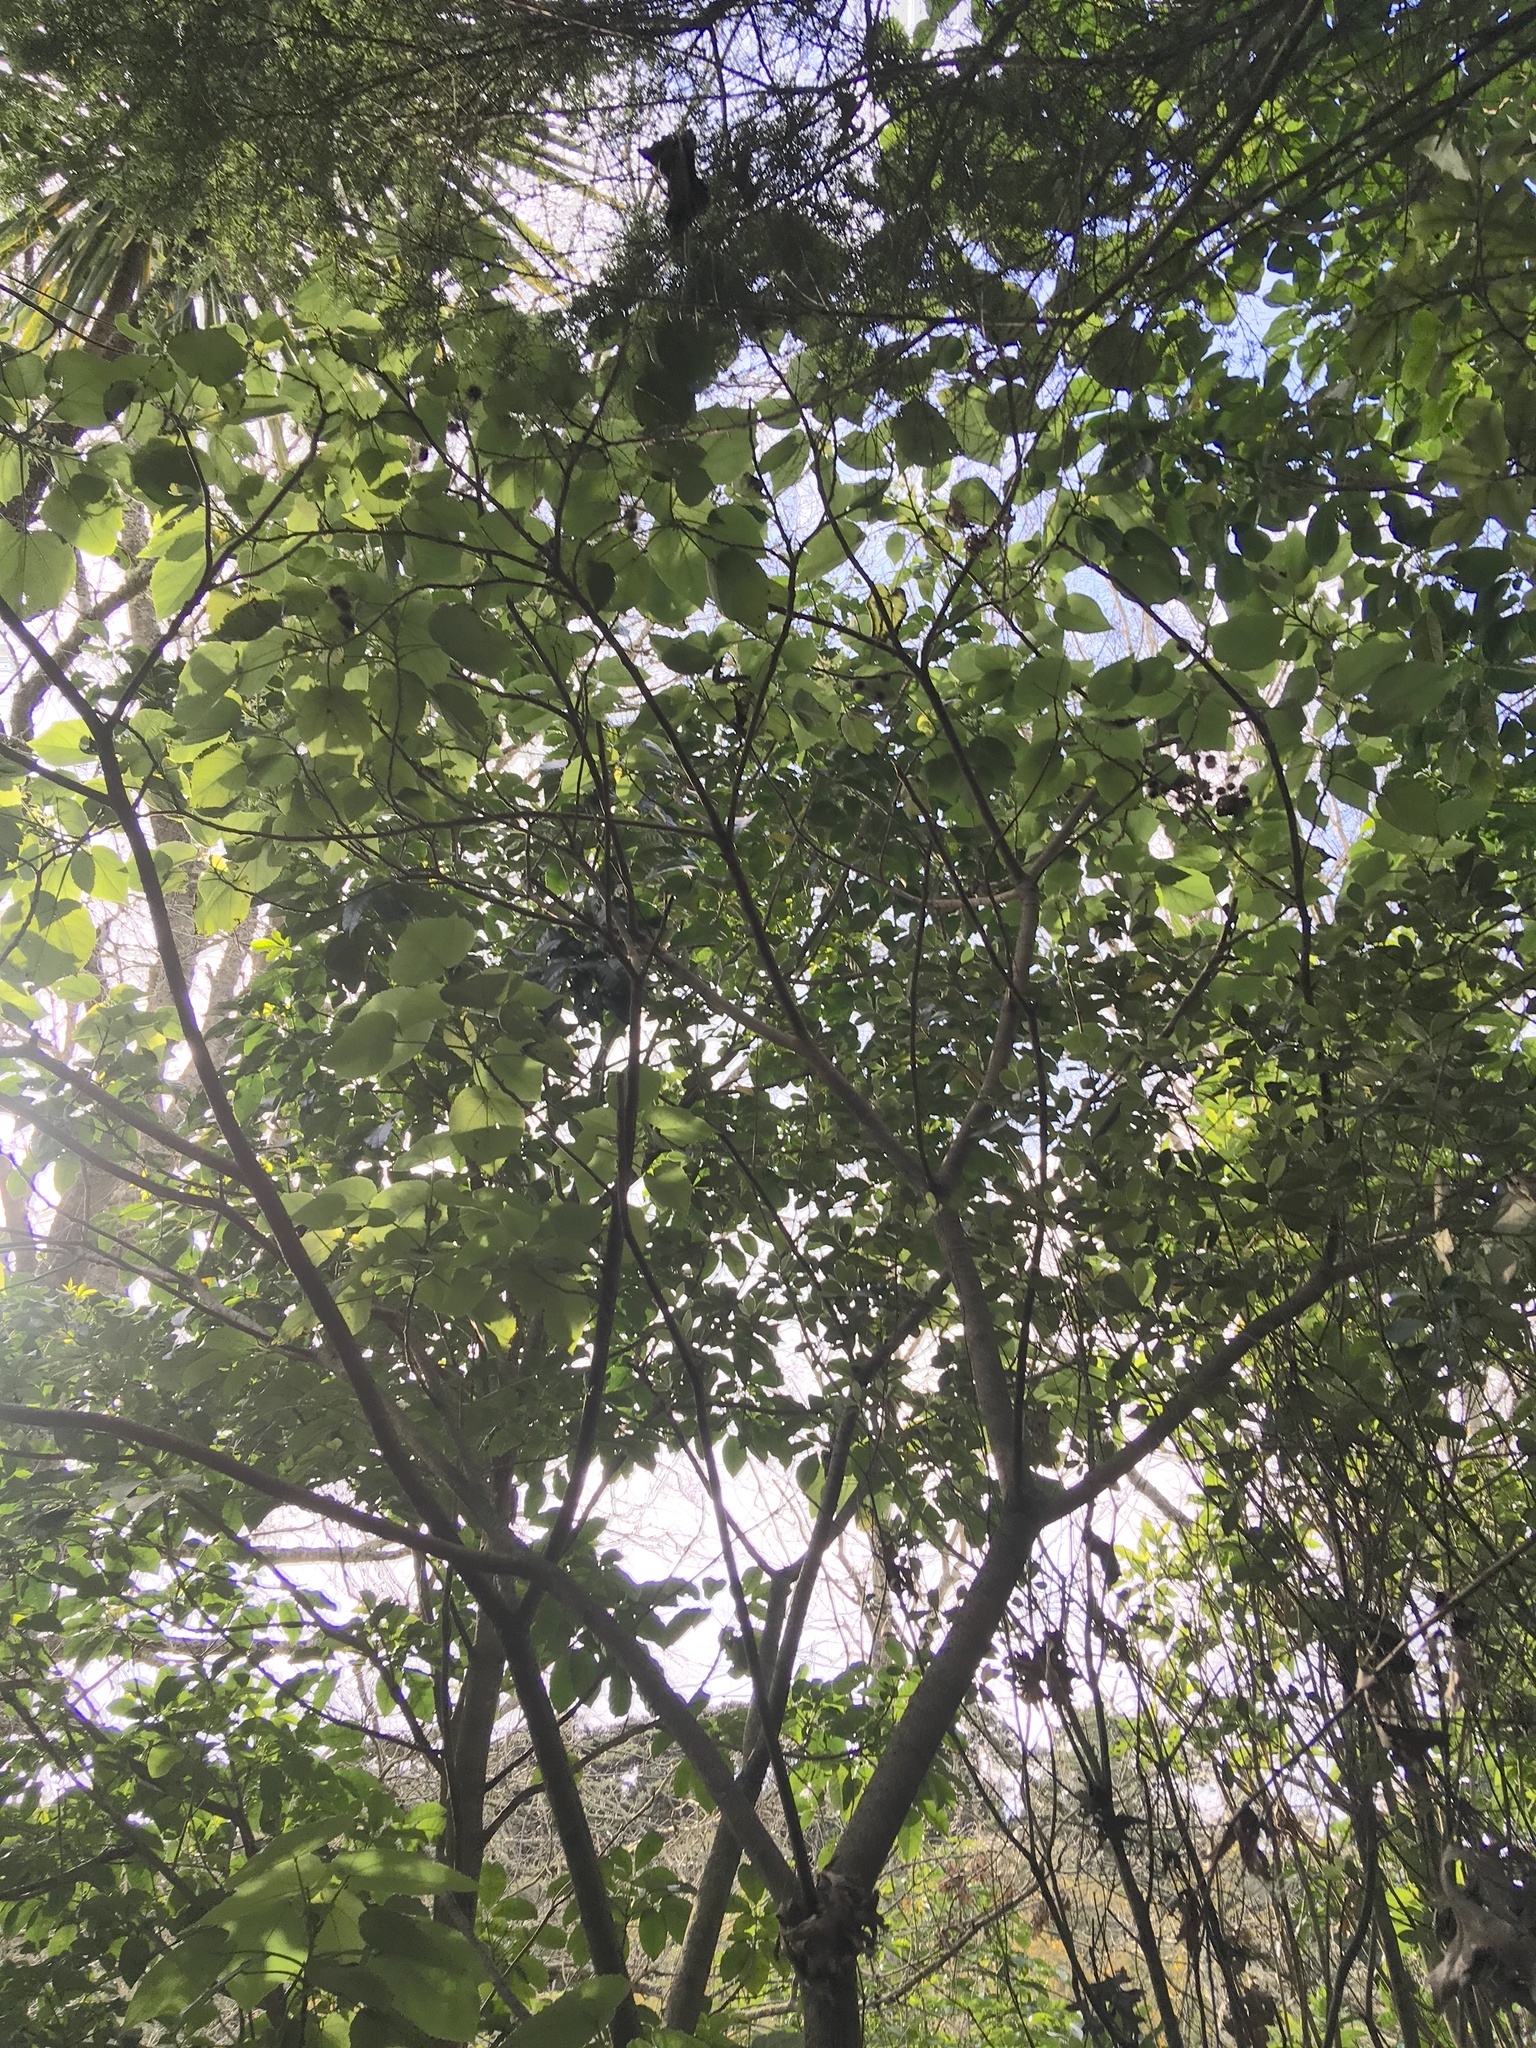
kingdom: Plantae
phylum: Tracheophyta
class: Magnoliopsida
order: Malvales
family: Malvaceae
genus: Entelea
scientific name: Entelea arborescens
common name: New zealand-mulberry
